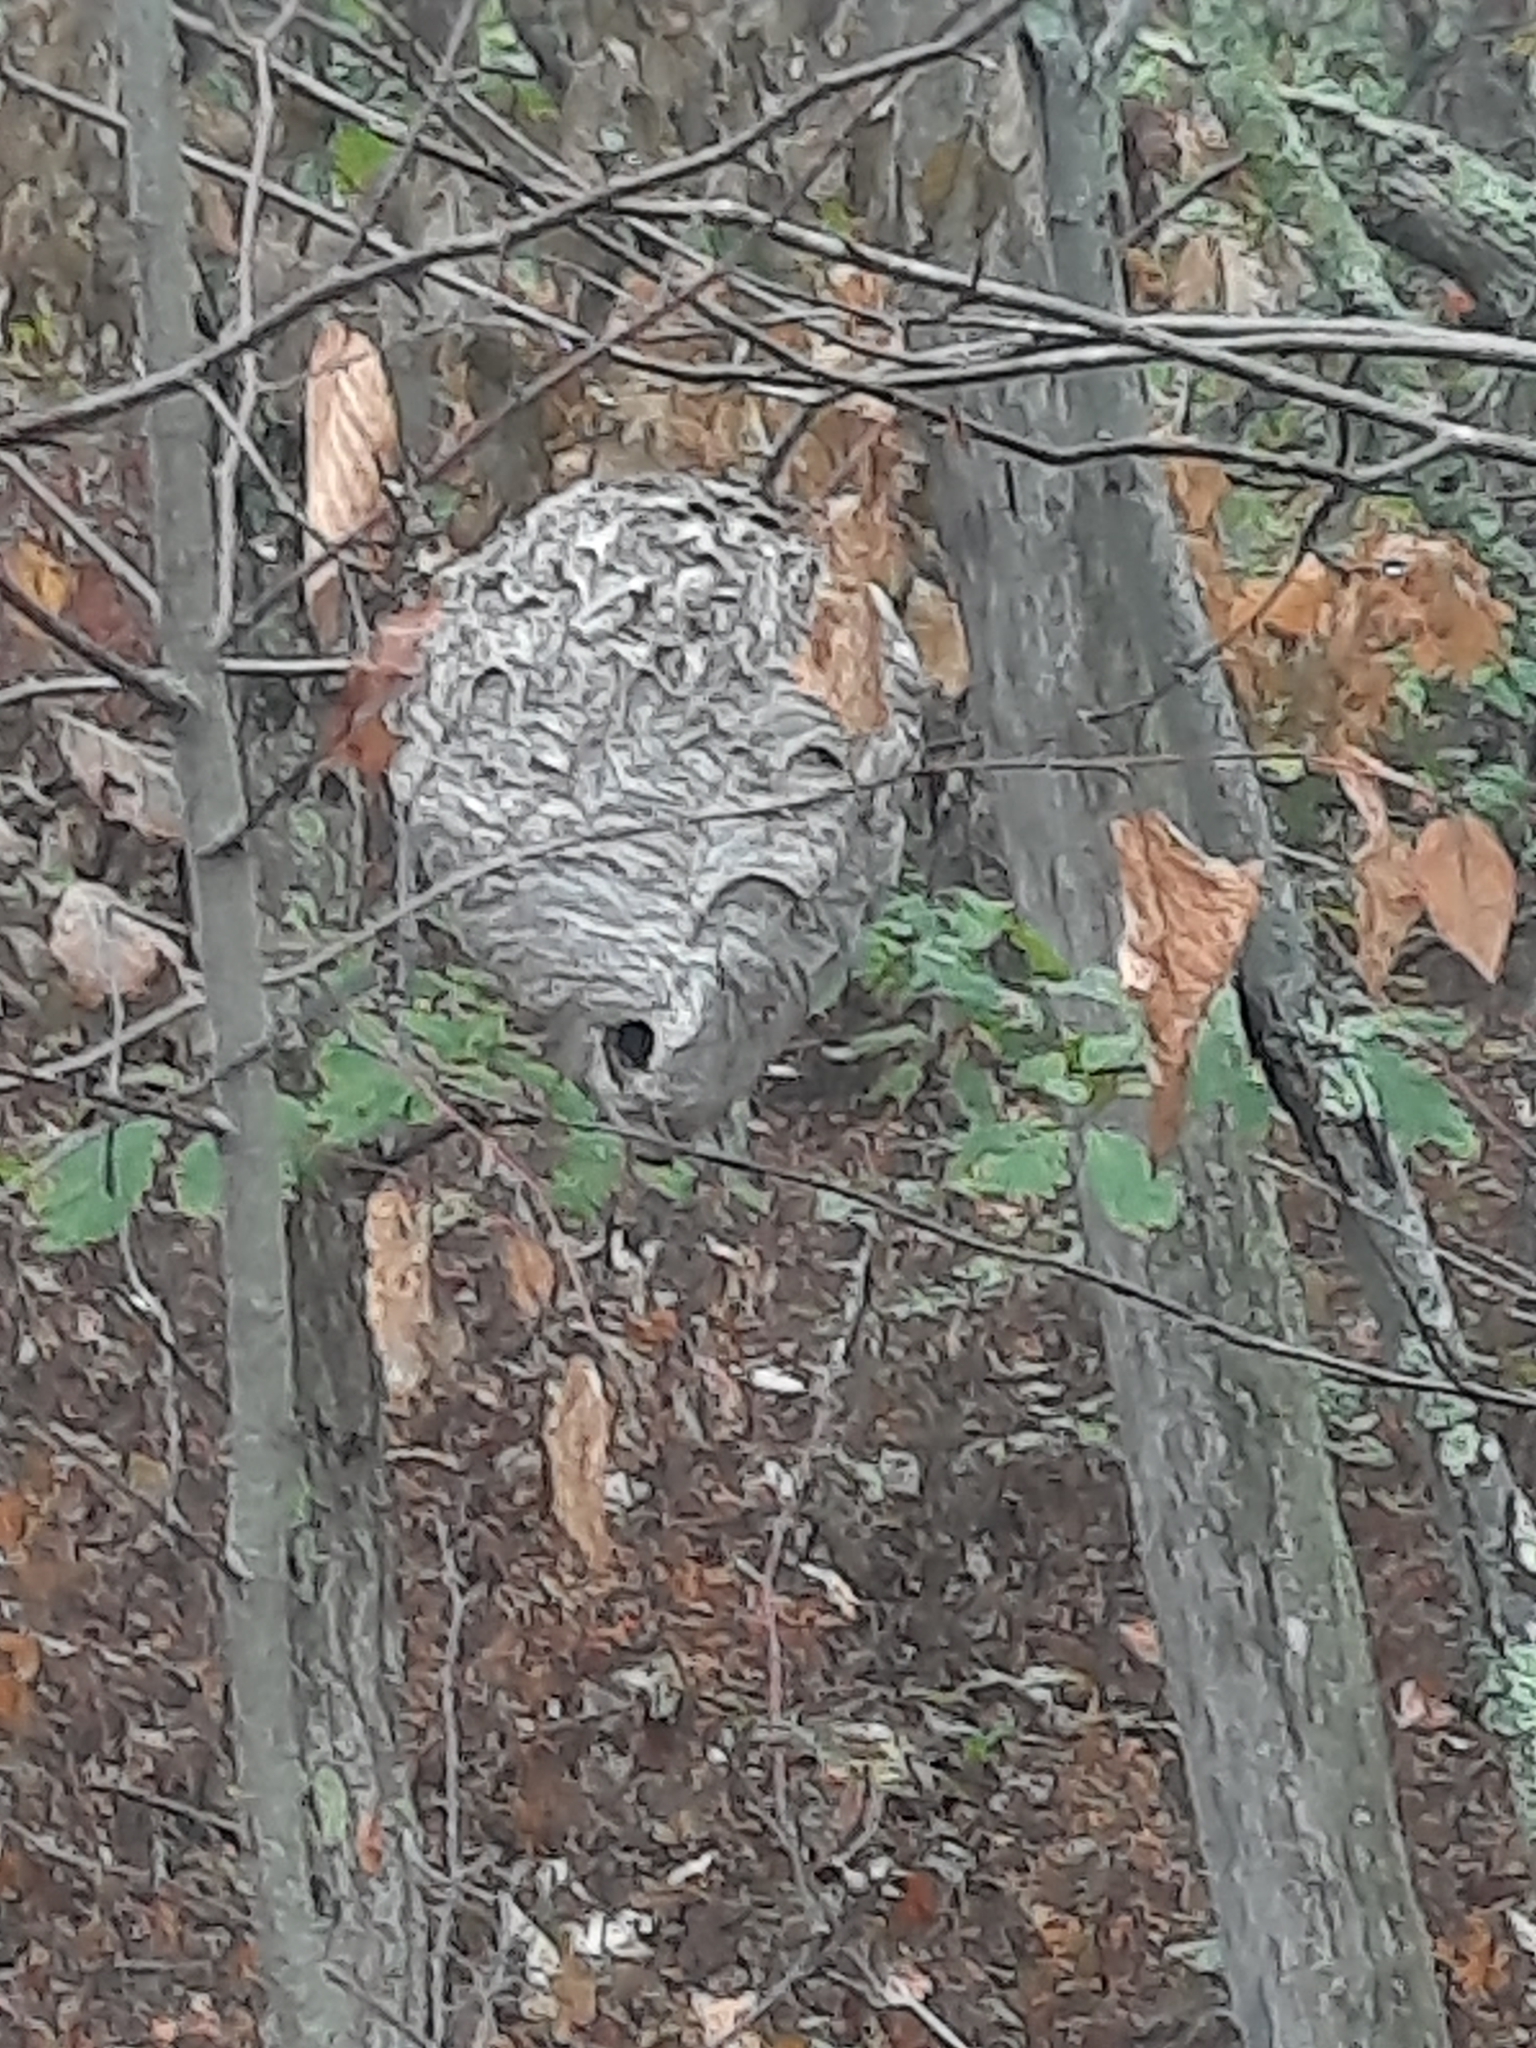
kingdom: Animalia
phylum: Arthropoda
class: Insecta
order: Hymenoptera
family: Vespidae
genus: Dolichovespula
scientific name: Dolichovespula maculata
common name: Bald-faced hornet
